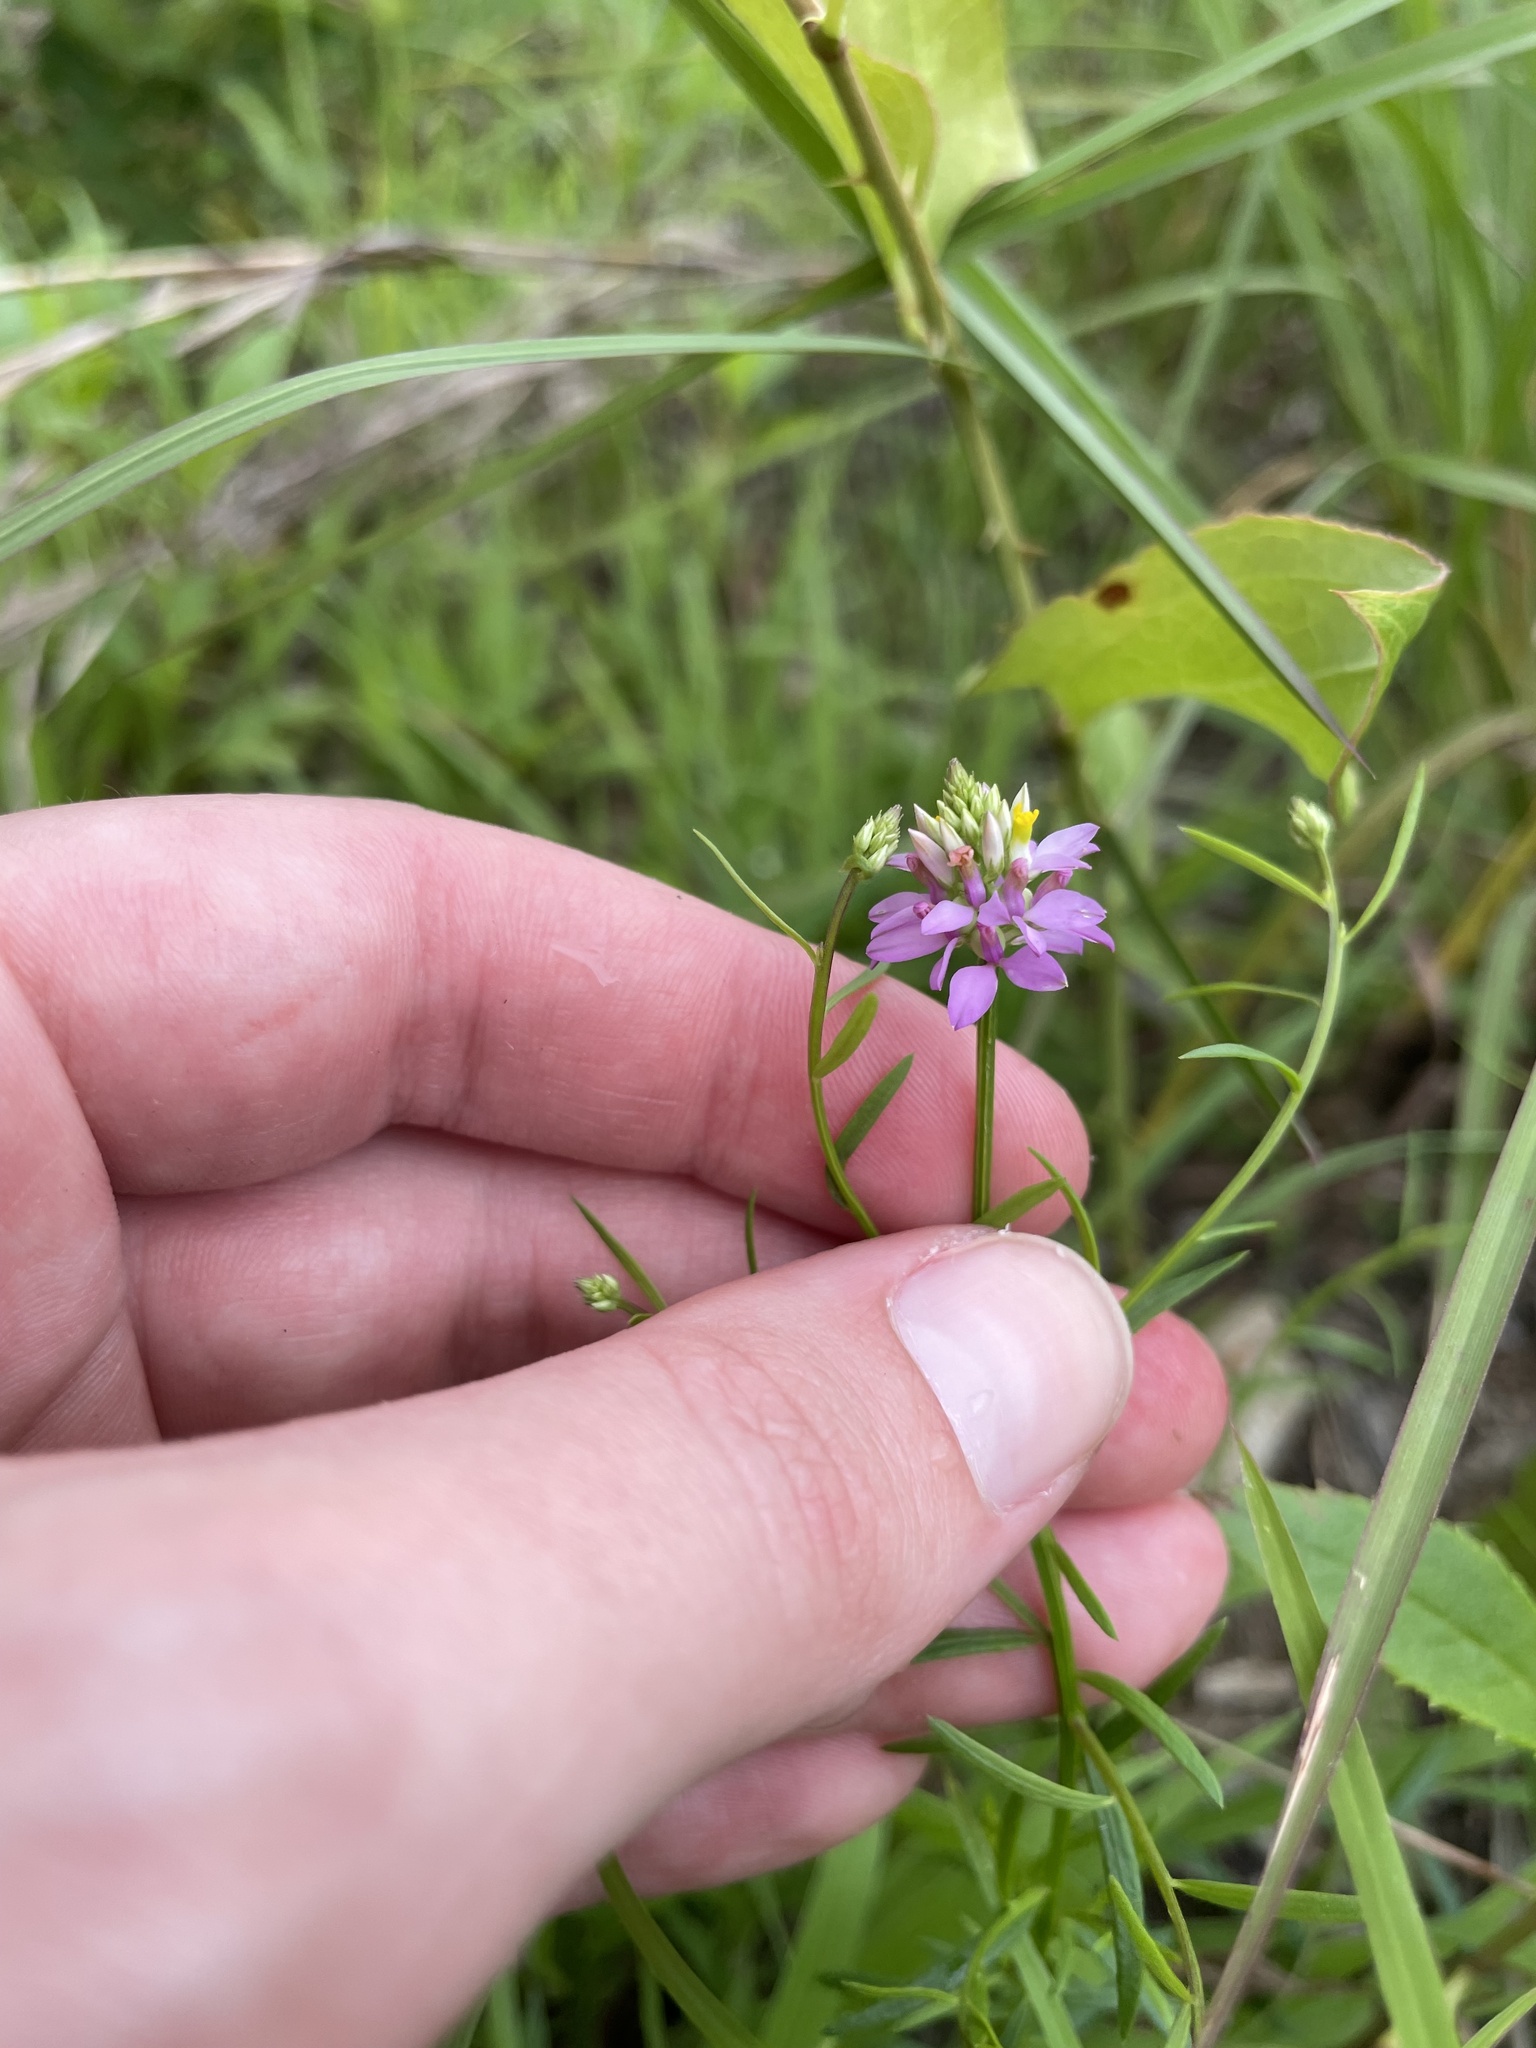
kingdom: Plantae
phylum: Tracheophyta
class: Magnoliopsida
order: Fabales
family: Polygalaceae
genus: Polygala
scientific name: Polygala curtissii
